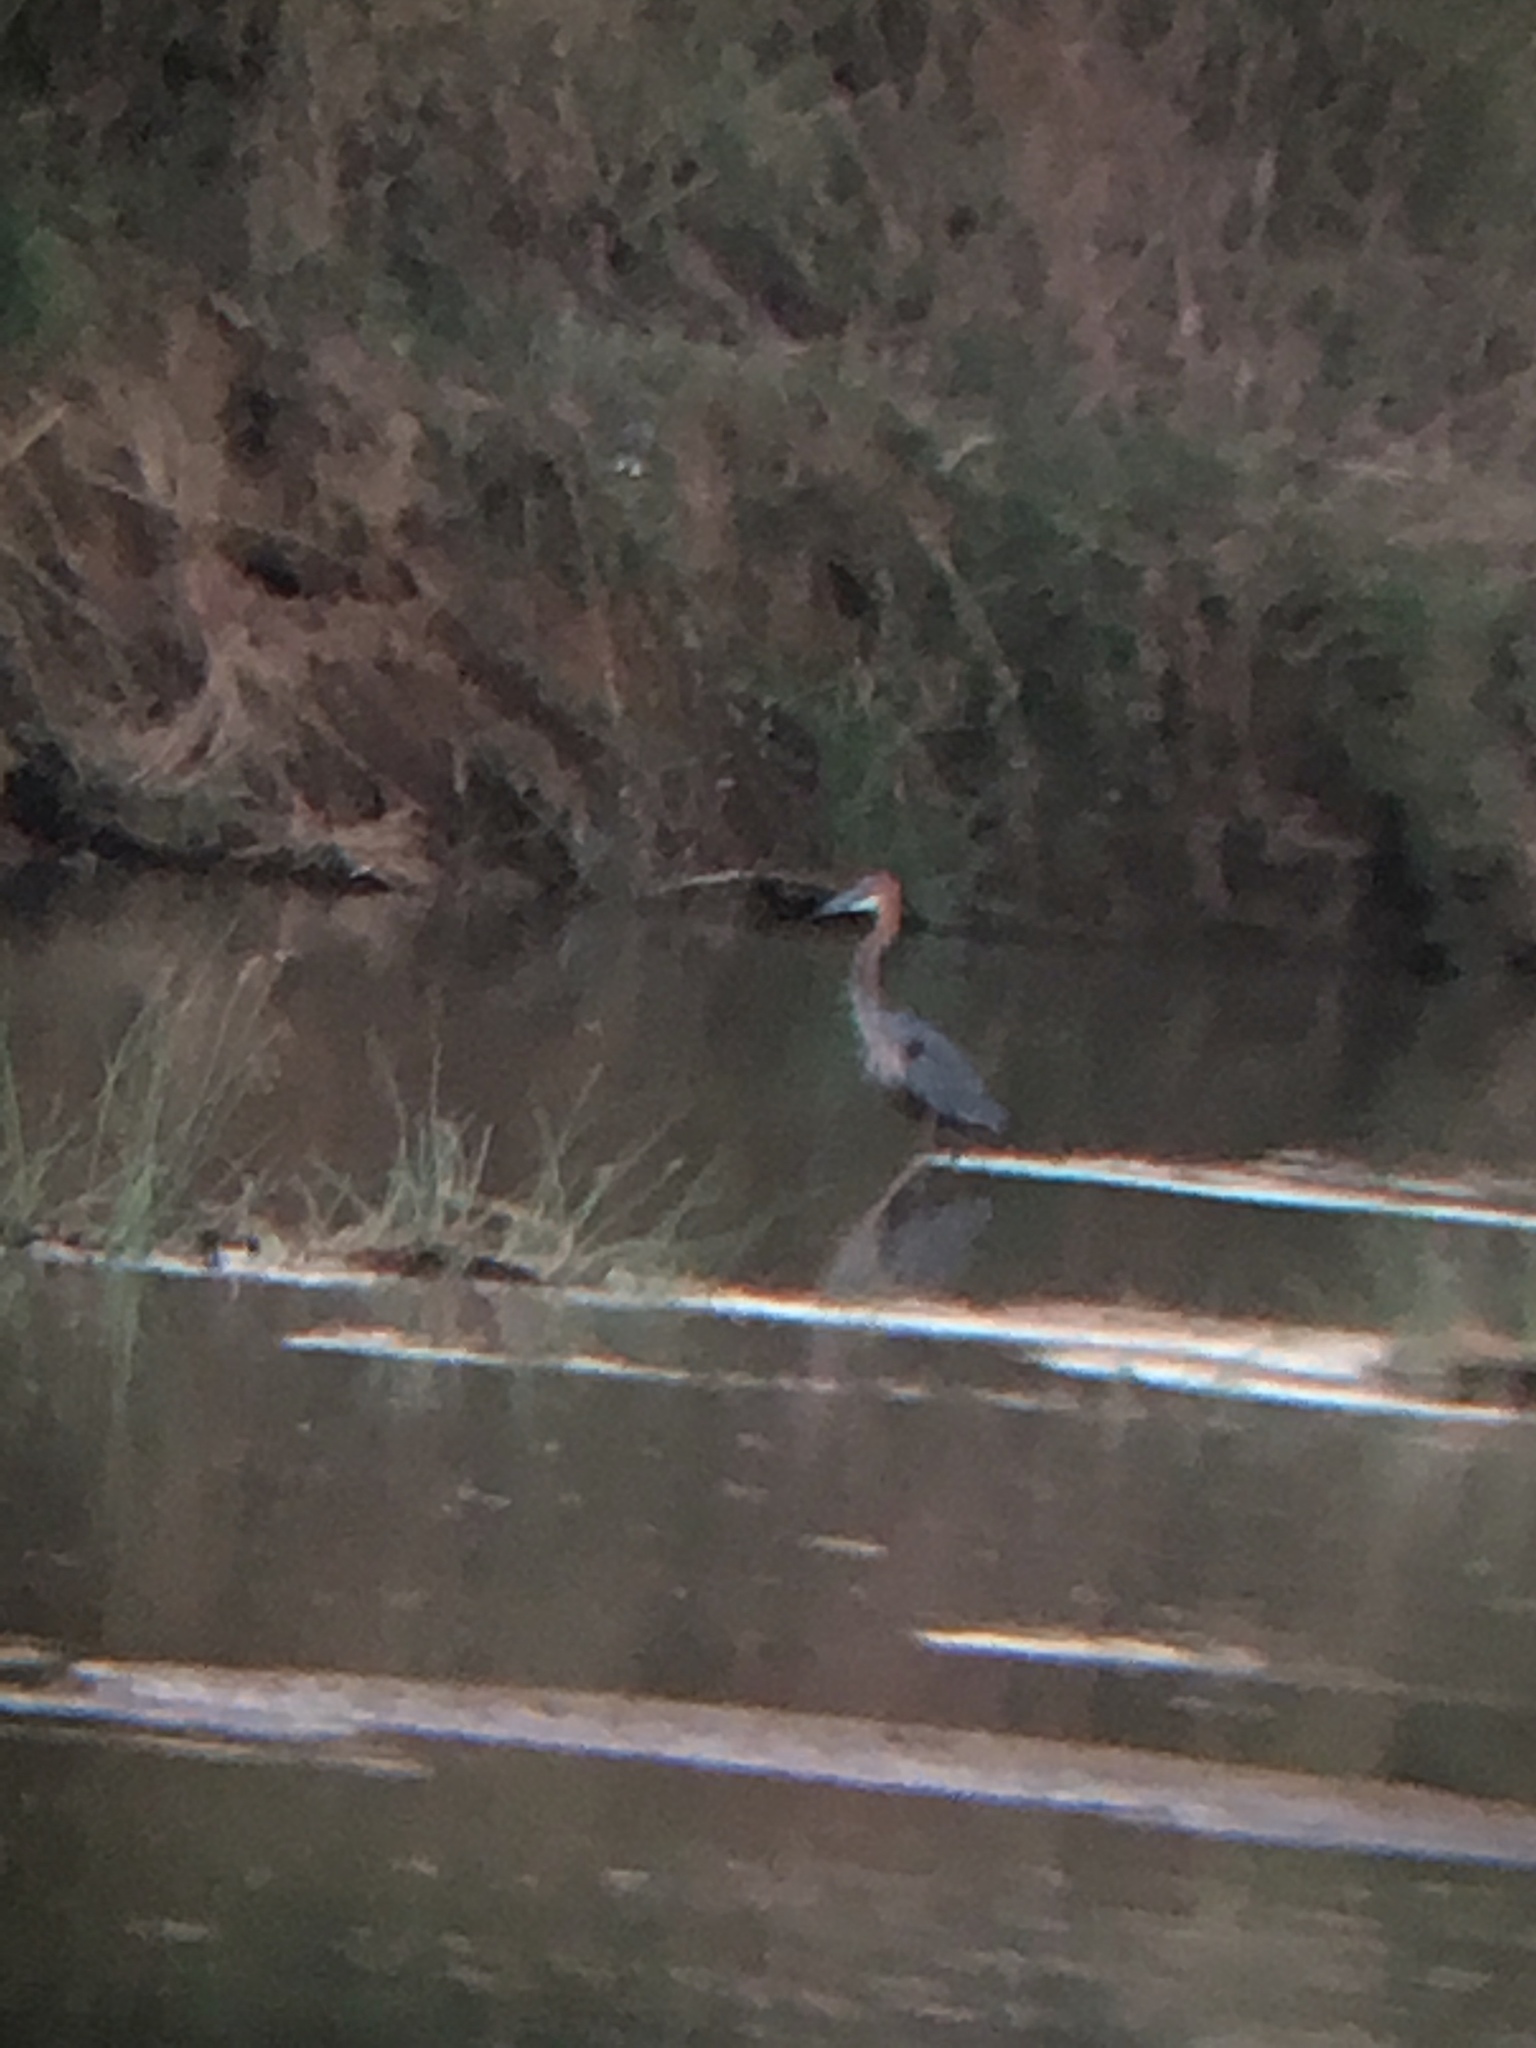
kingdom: Animalia
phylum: Chordata
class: Aves
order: Pelecaniformes
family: Ardeidae
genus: Ardea
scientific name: Ardea goliath
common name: Goliath heron
